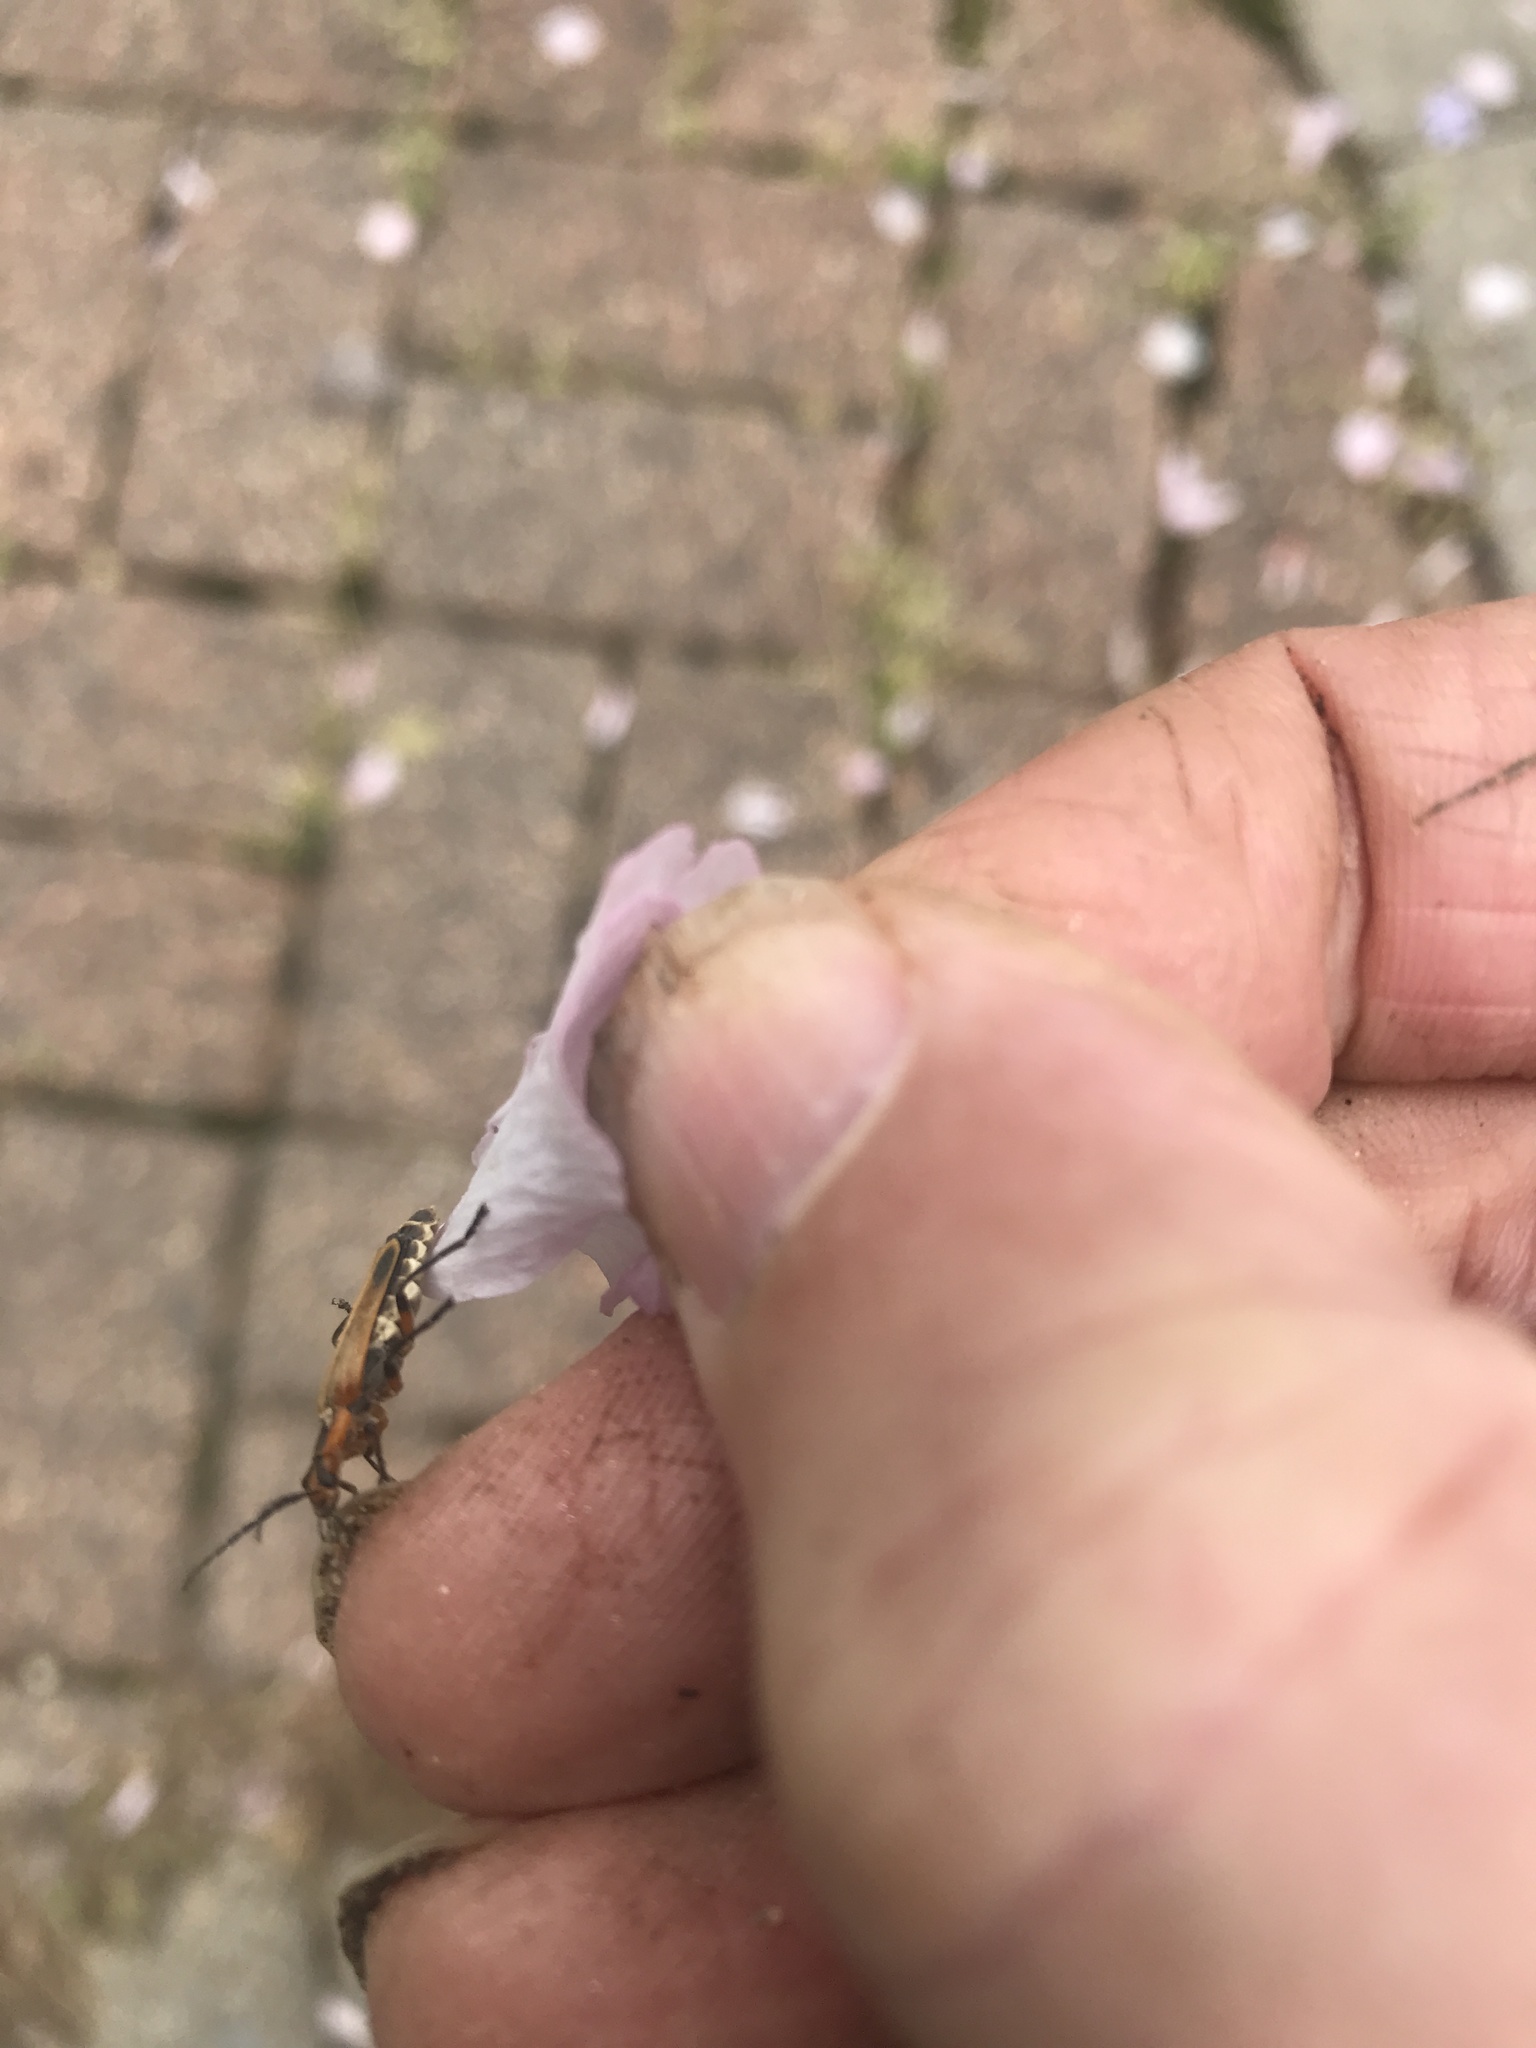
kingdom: Animalia
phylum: Arthropoda
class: Insecta
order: Coleoptera
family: Cantharidae
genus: Chauliognathus
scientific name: Chauliognathus marginatus
